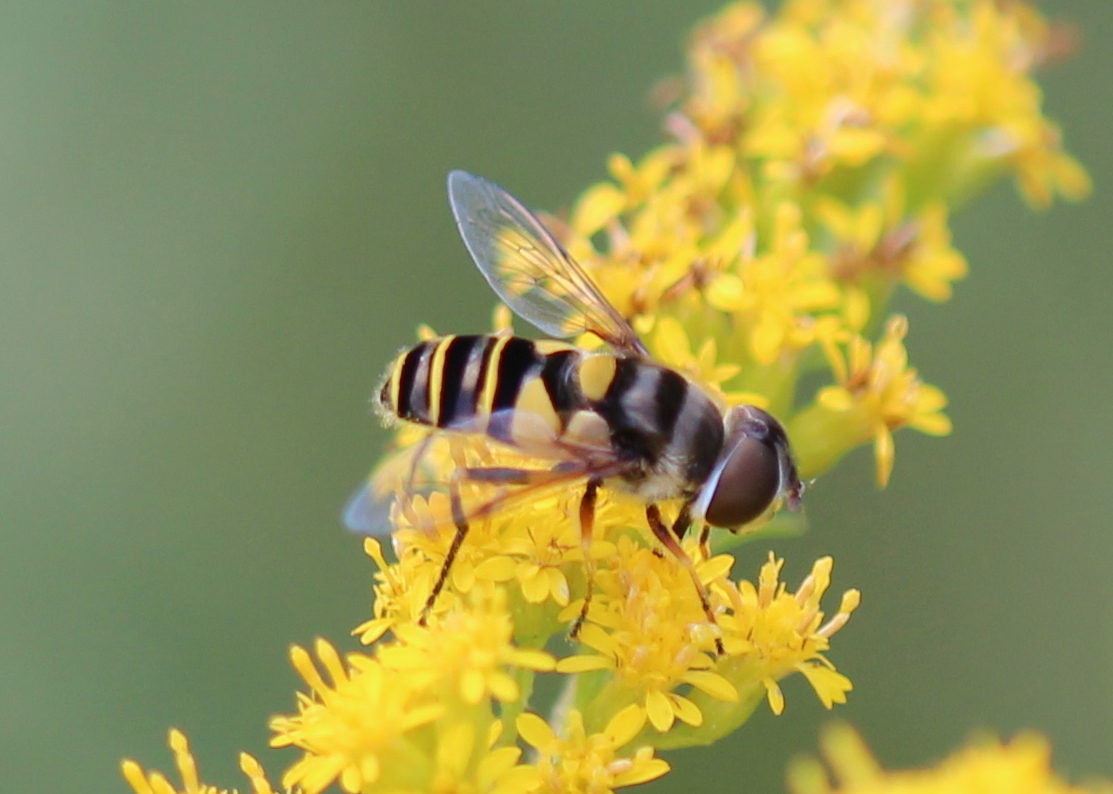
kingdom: Animalia
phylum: Arthropoda
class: Insecta
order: Diptera
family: Syrphidae
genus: Eristalis
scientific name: Eristalis transversa
